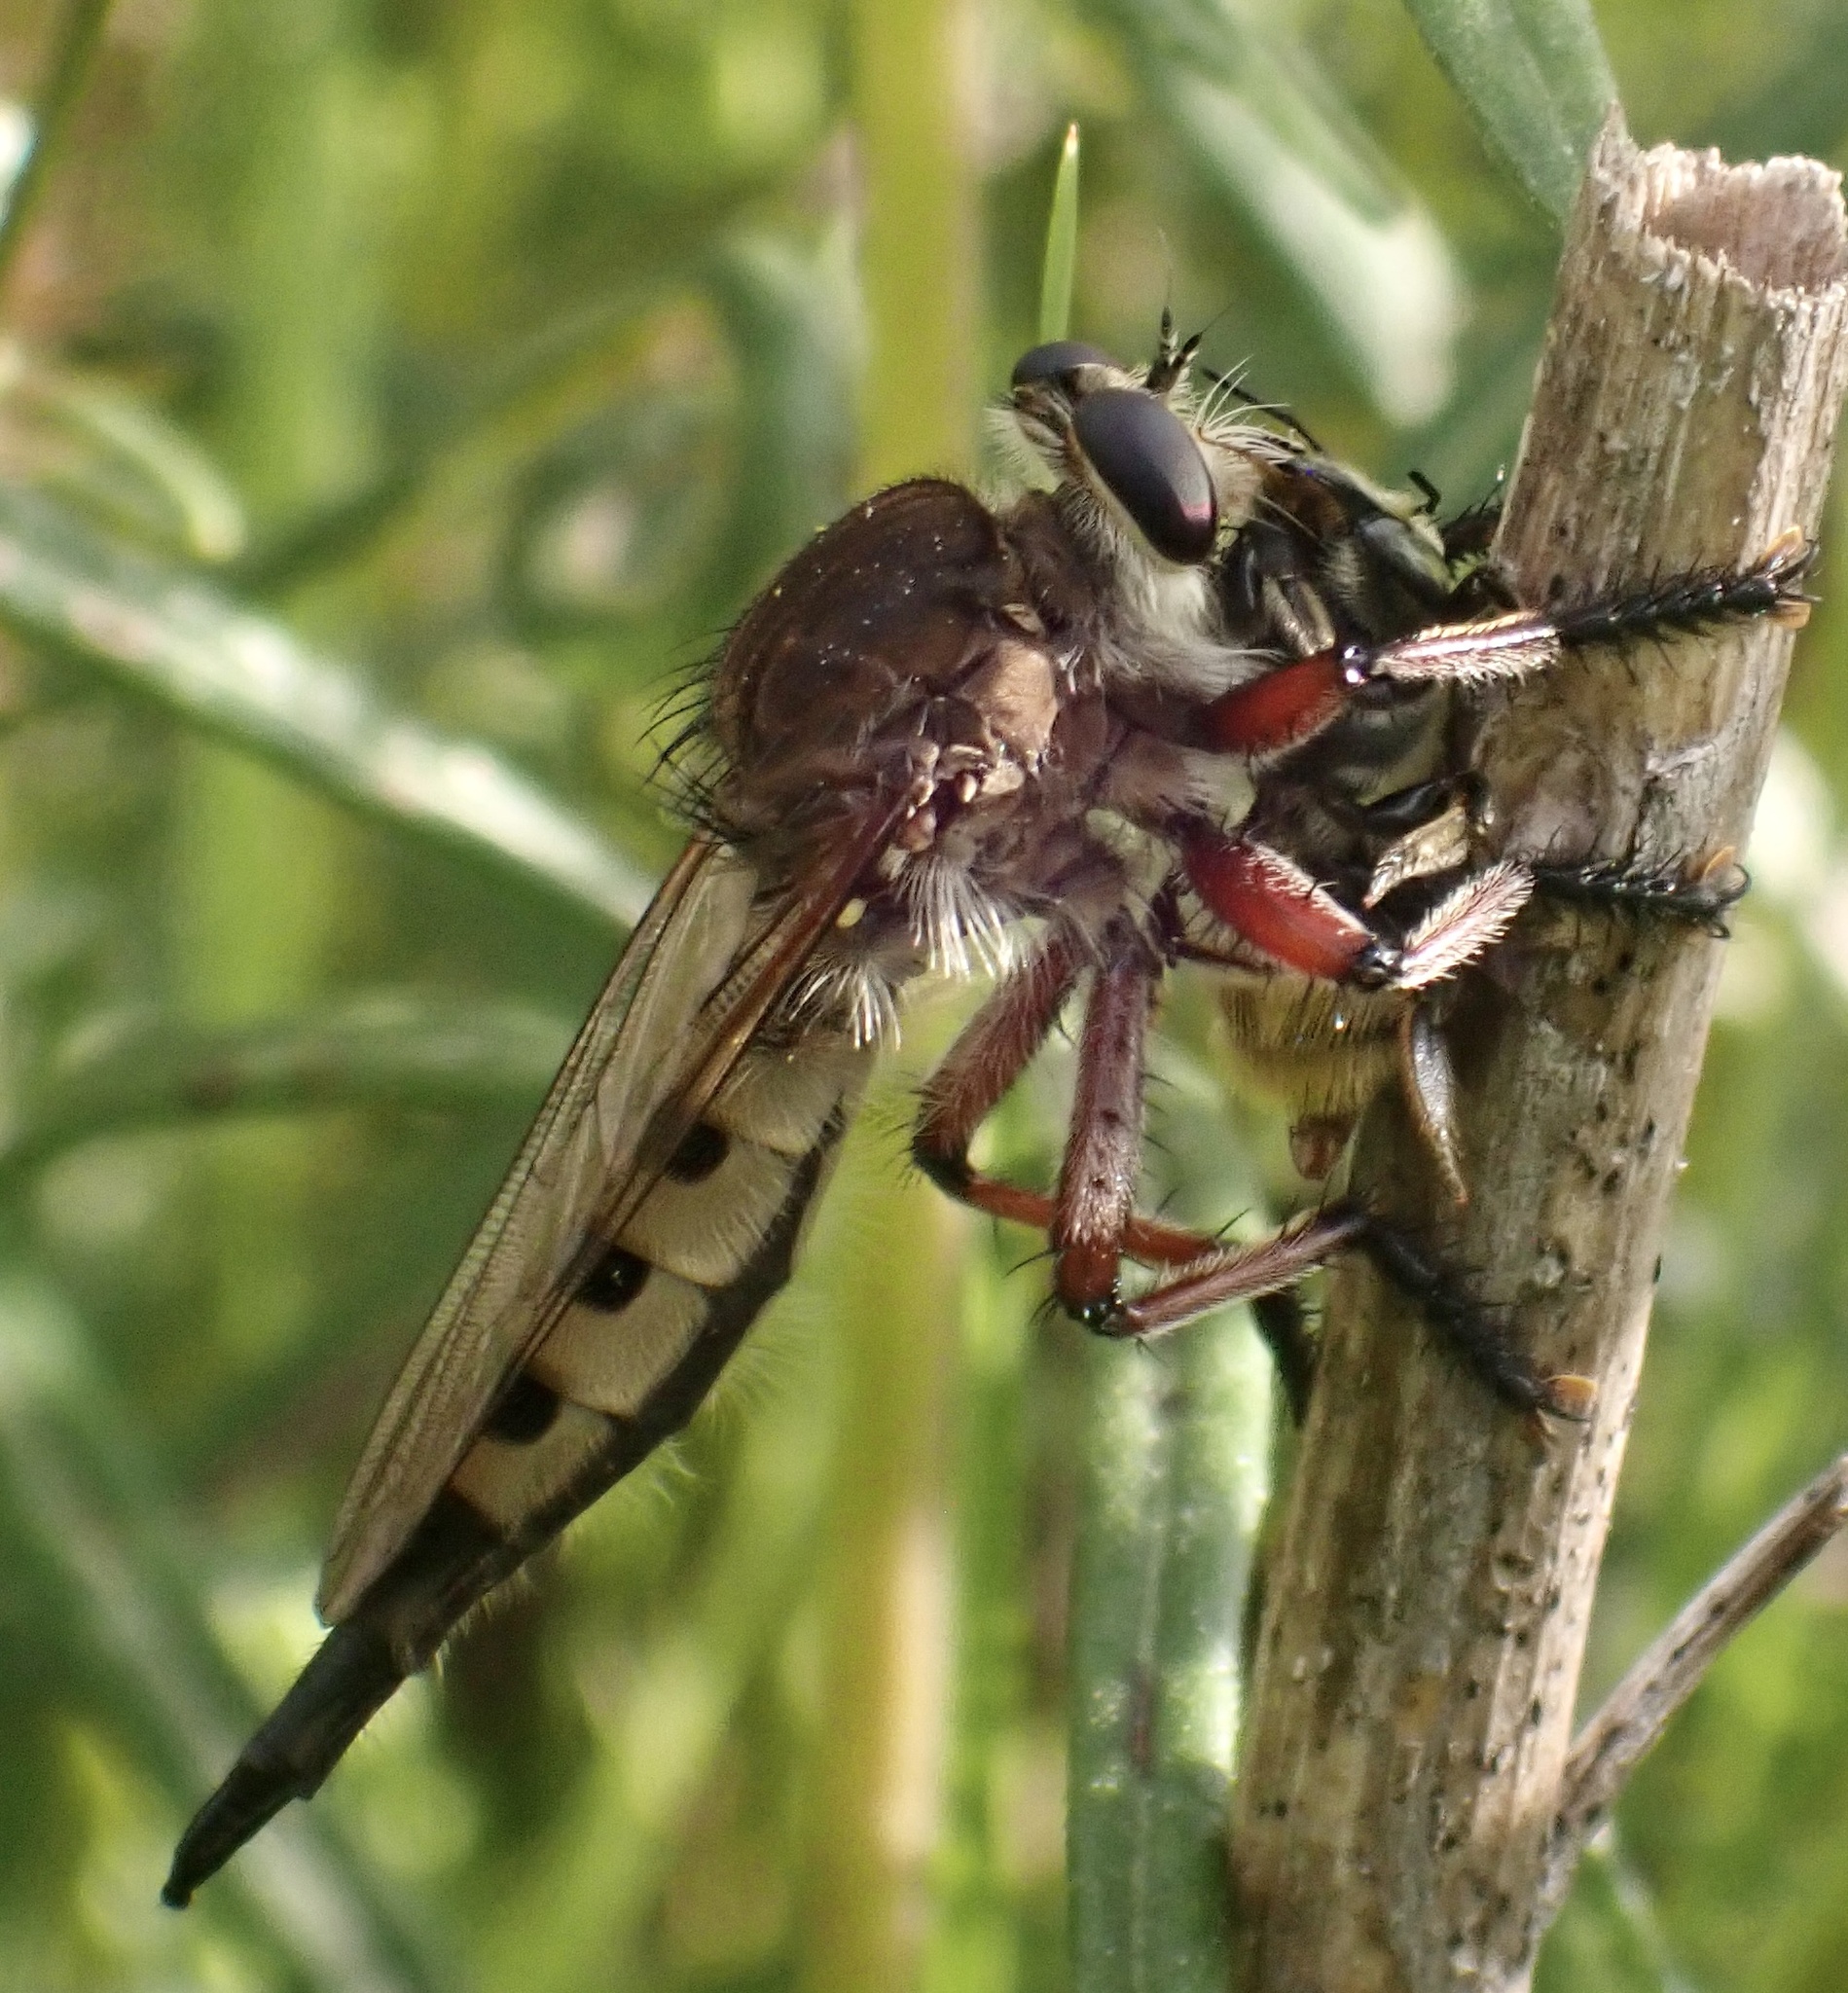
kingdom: Animalia
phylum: Arthropoda
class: Insecta
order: Diptera
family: Asilidae
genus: Promachus
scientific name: Promachus hinei
